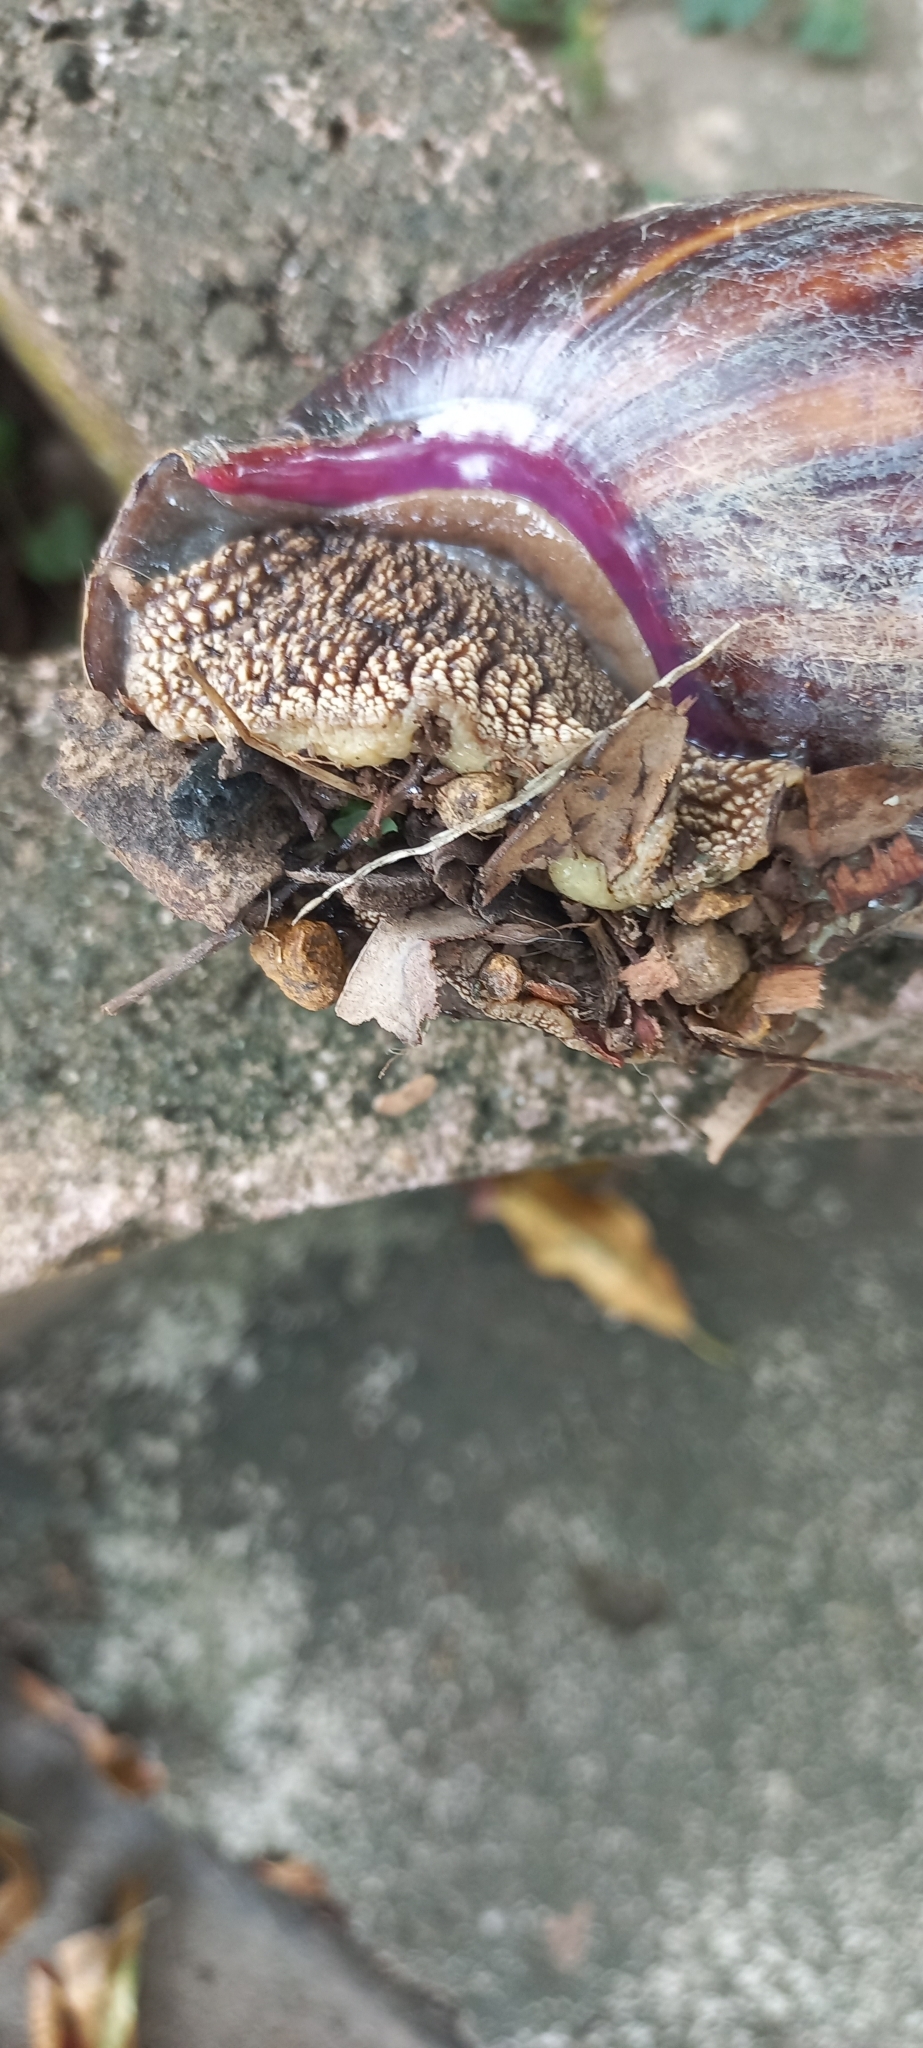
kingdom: Animalia
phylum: Mollusca
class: Gastropoda
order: Stylommatophora
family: Achatinidae
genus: Lissachatina
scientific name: Lissachatina immaculata
